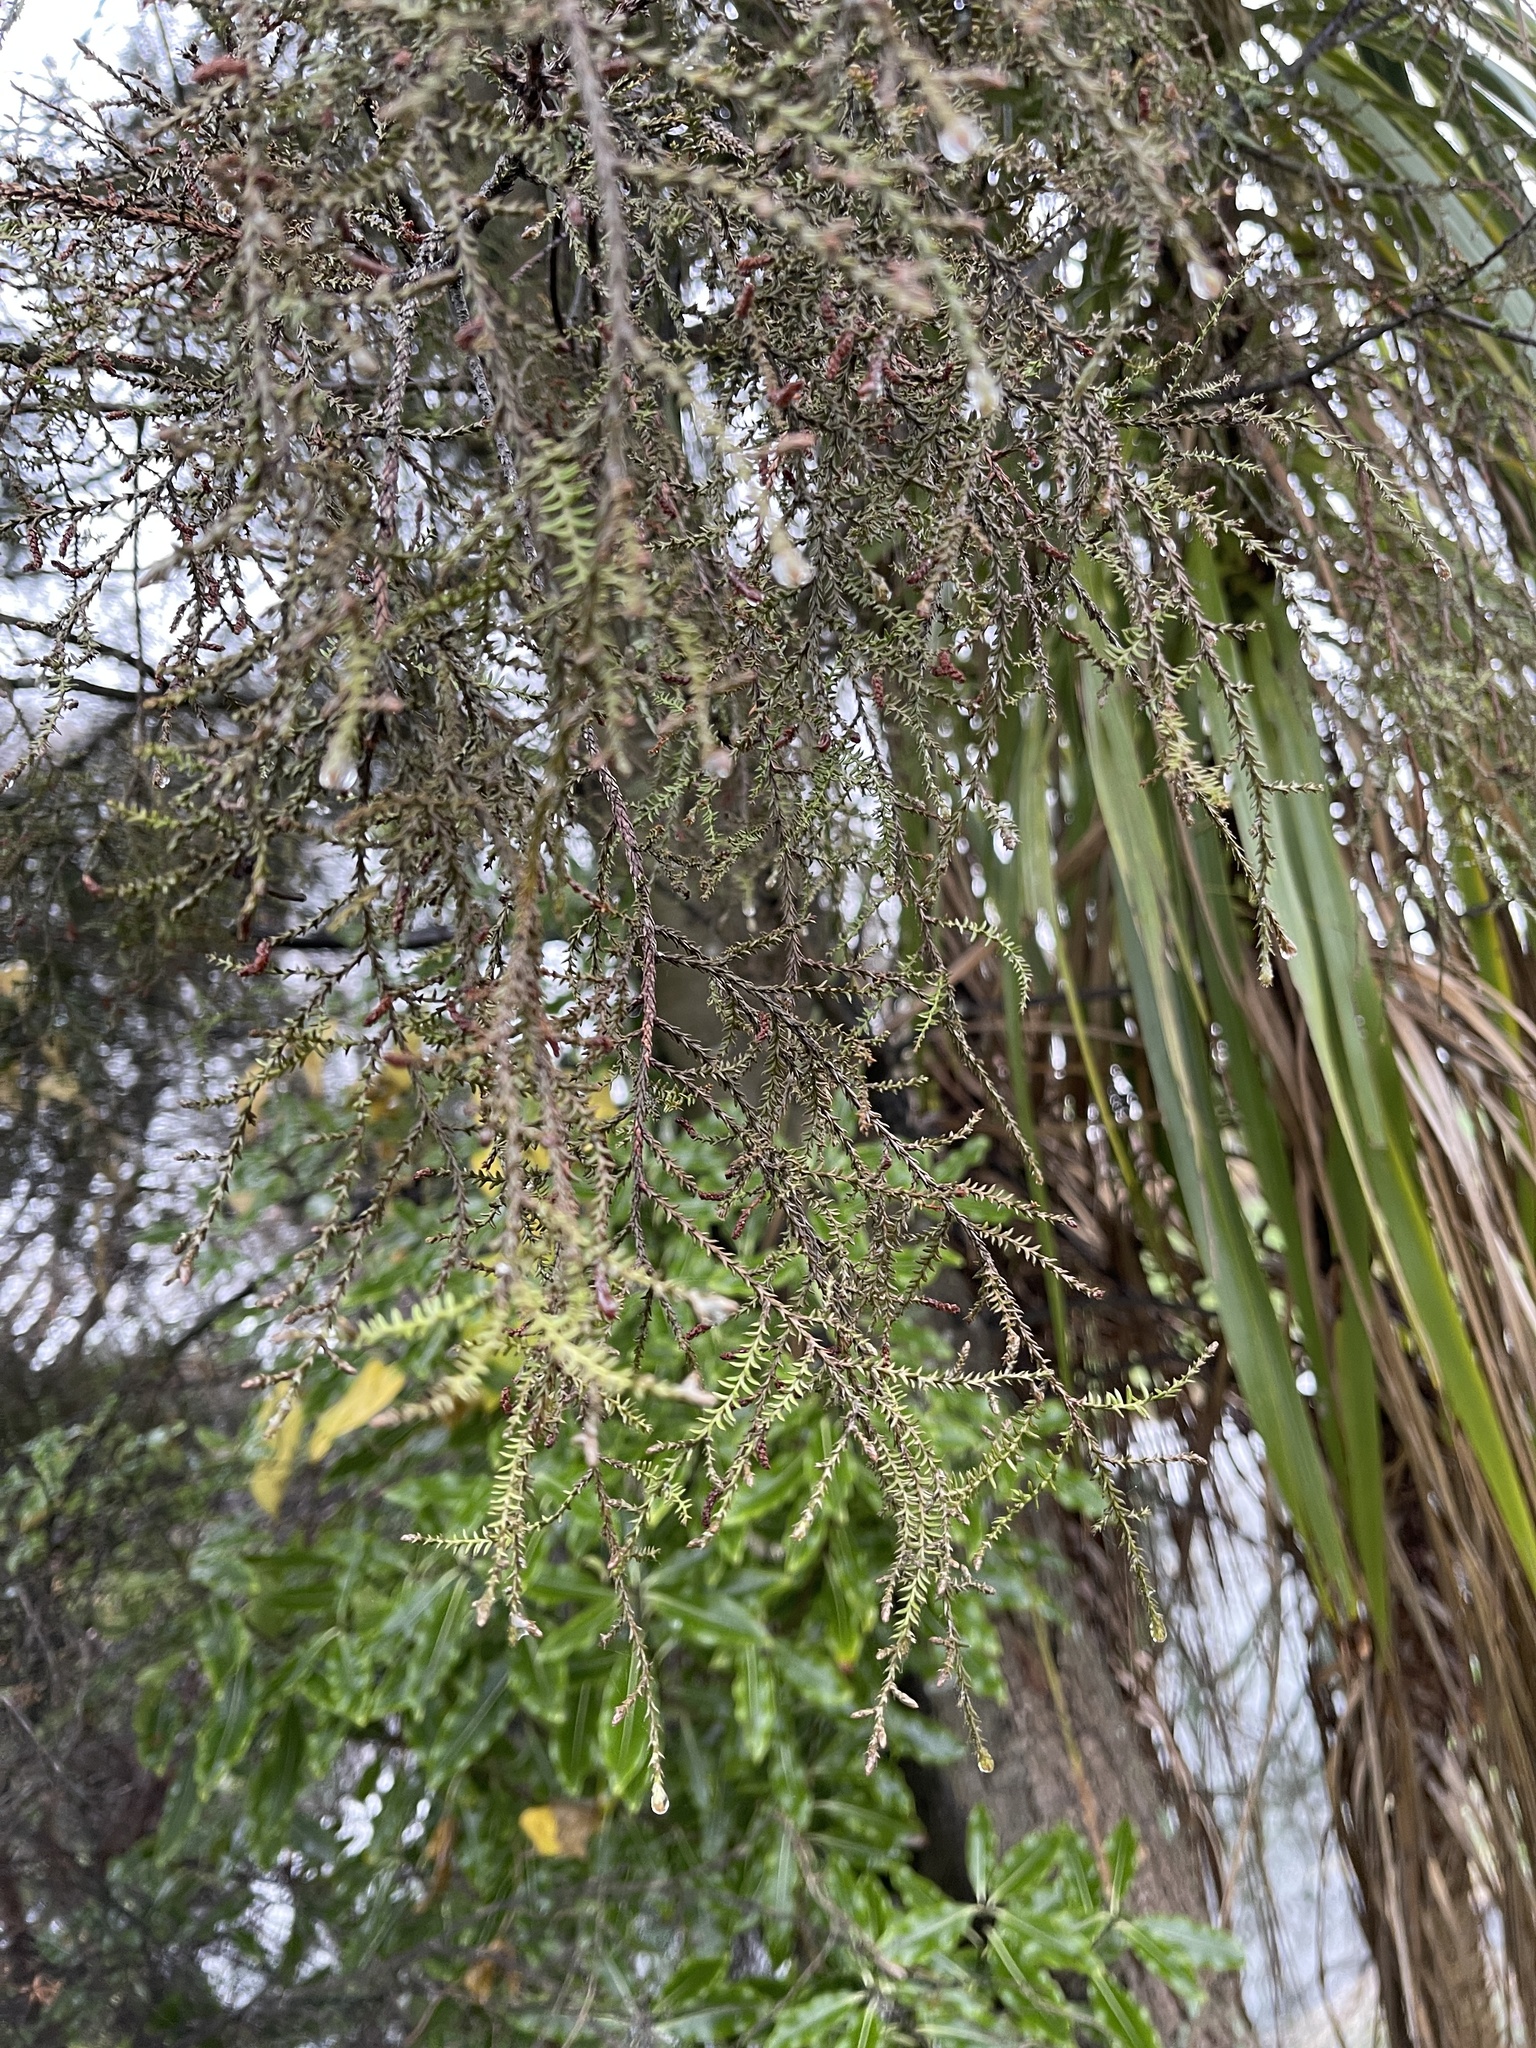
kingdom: Plantae
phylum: Tracheophyta
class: Pinopsida
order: Pinales
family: Podocarpaceae
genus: Dacrycarpus
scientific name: Dacrycarpus dacrydioides
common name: White pine
